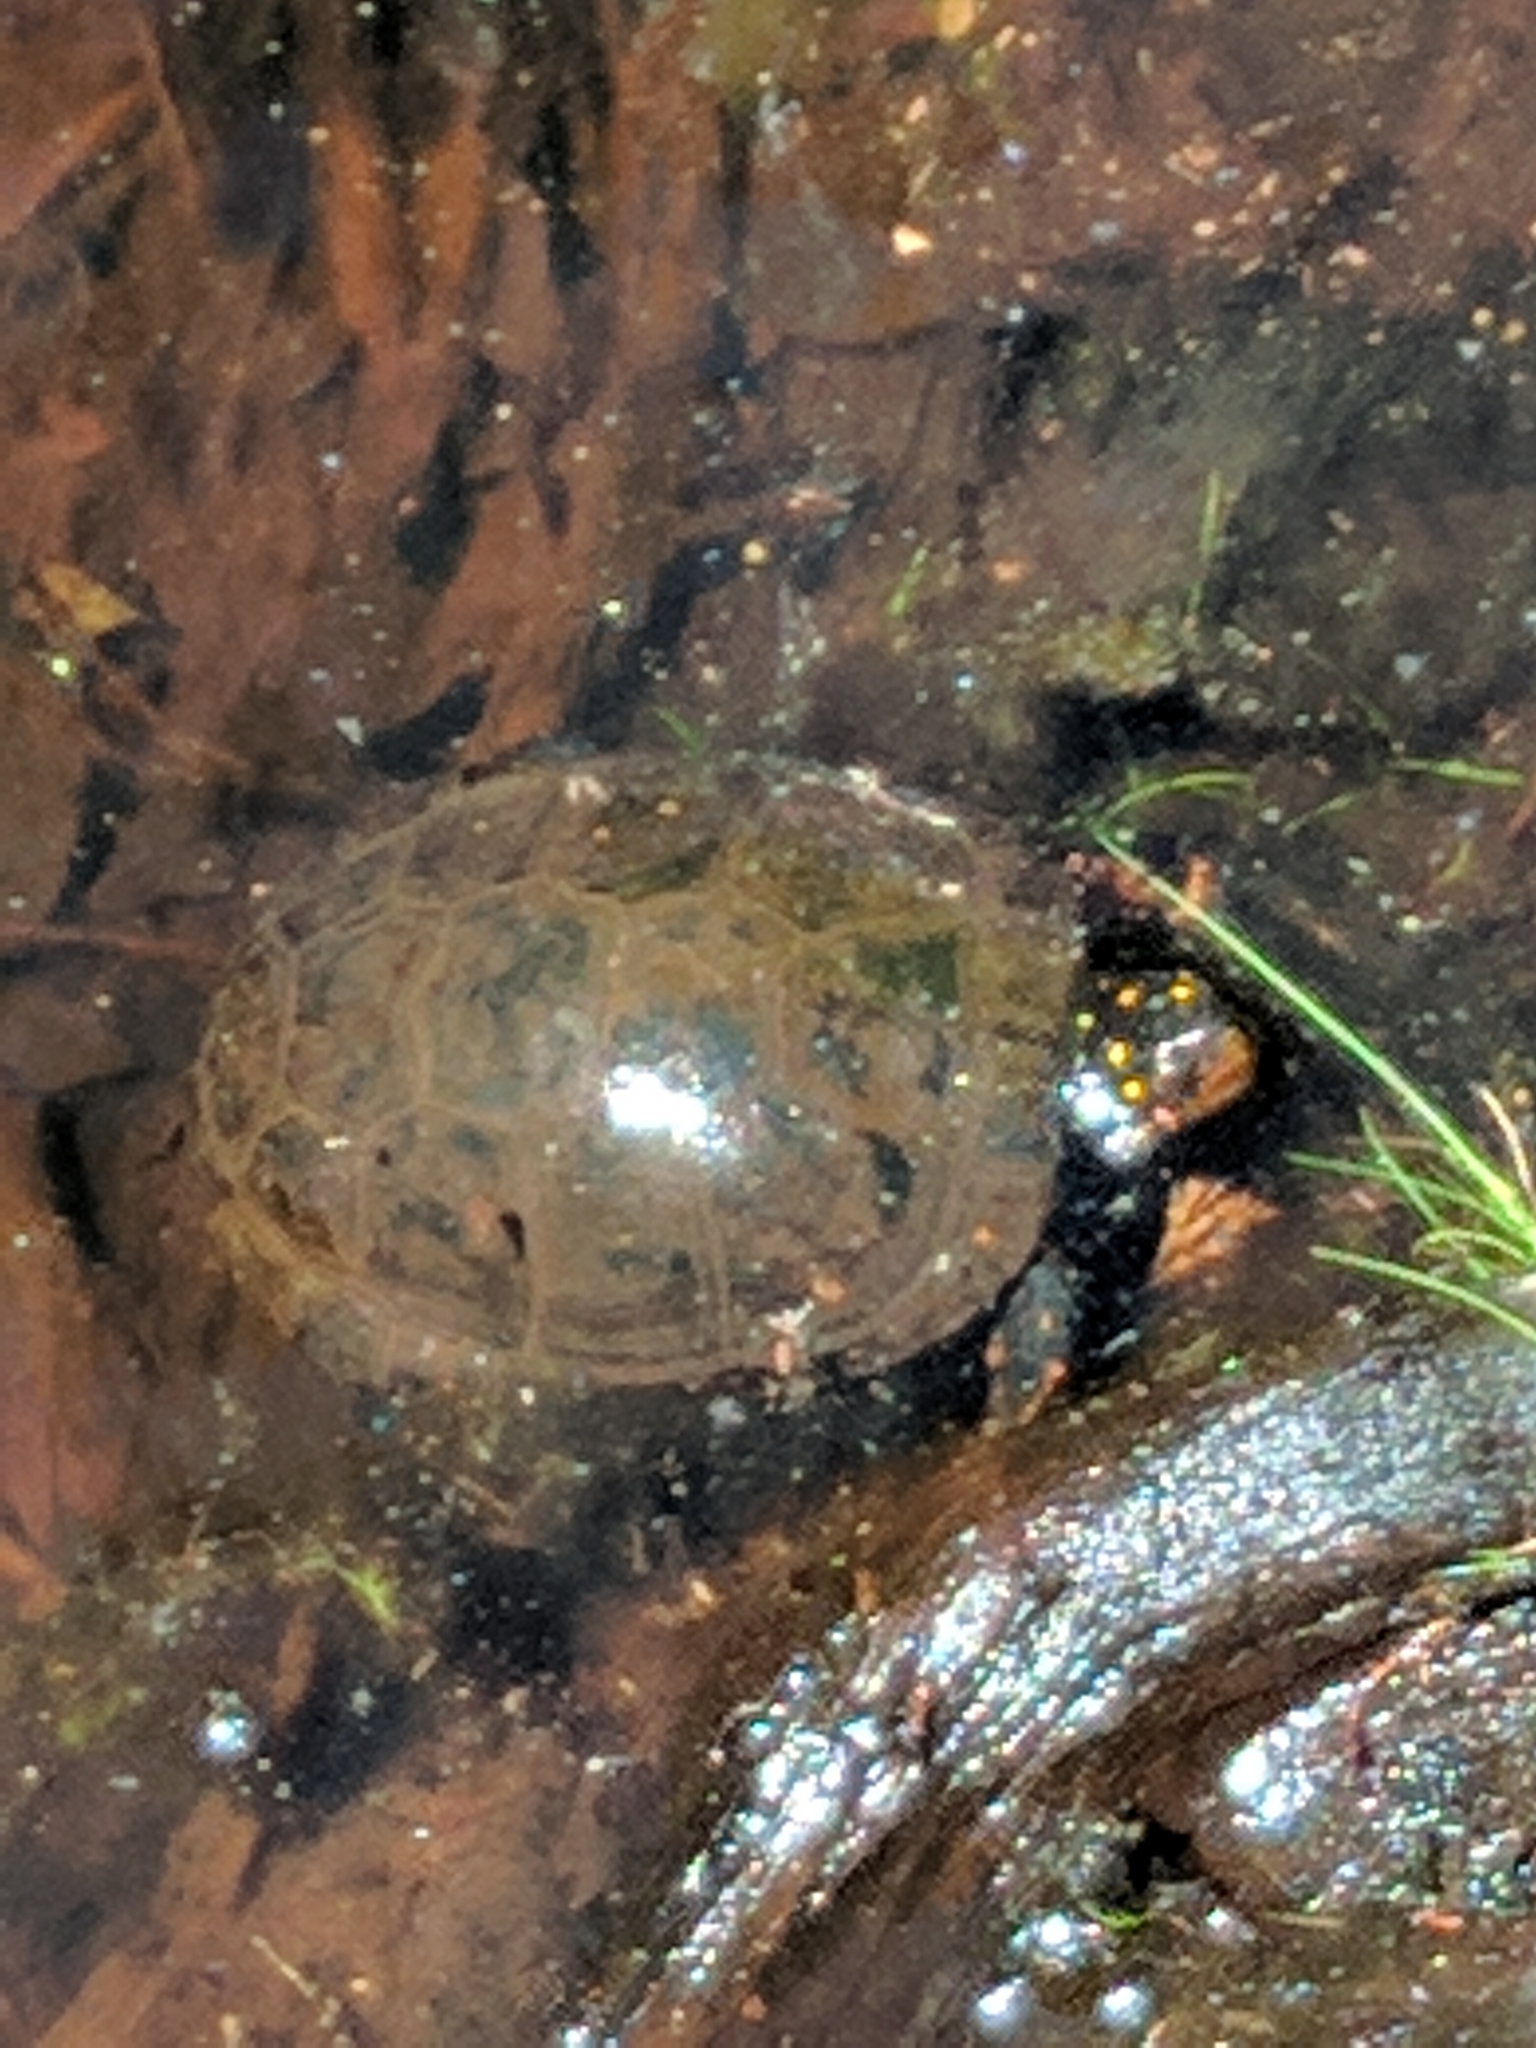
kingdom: Animalia
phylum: Chordata
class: Testudines
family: Emydidae
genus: Clemmys
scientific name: Clemmys guttata
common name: Spotted turtle
